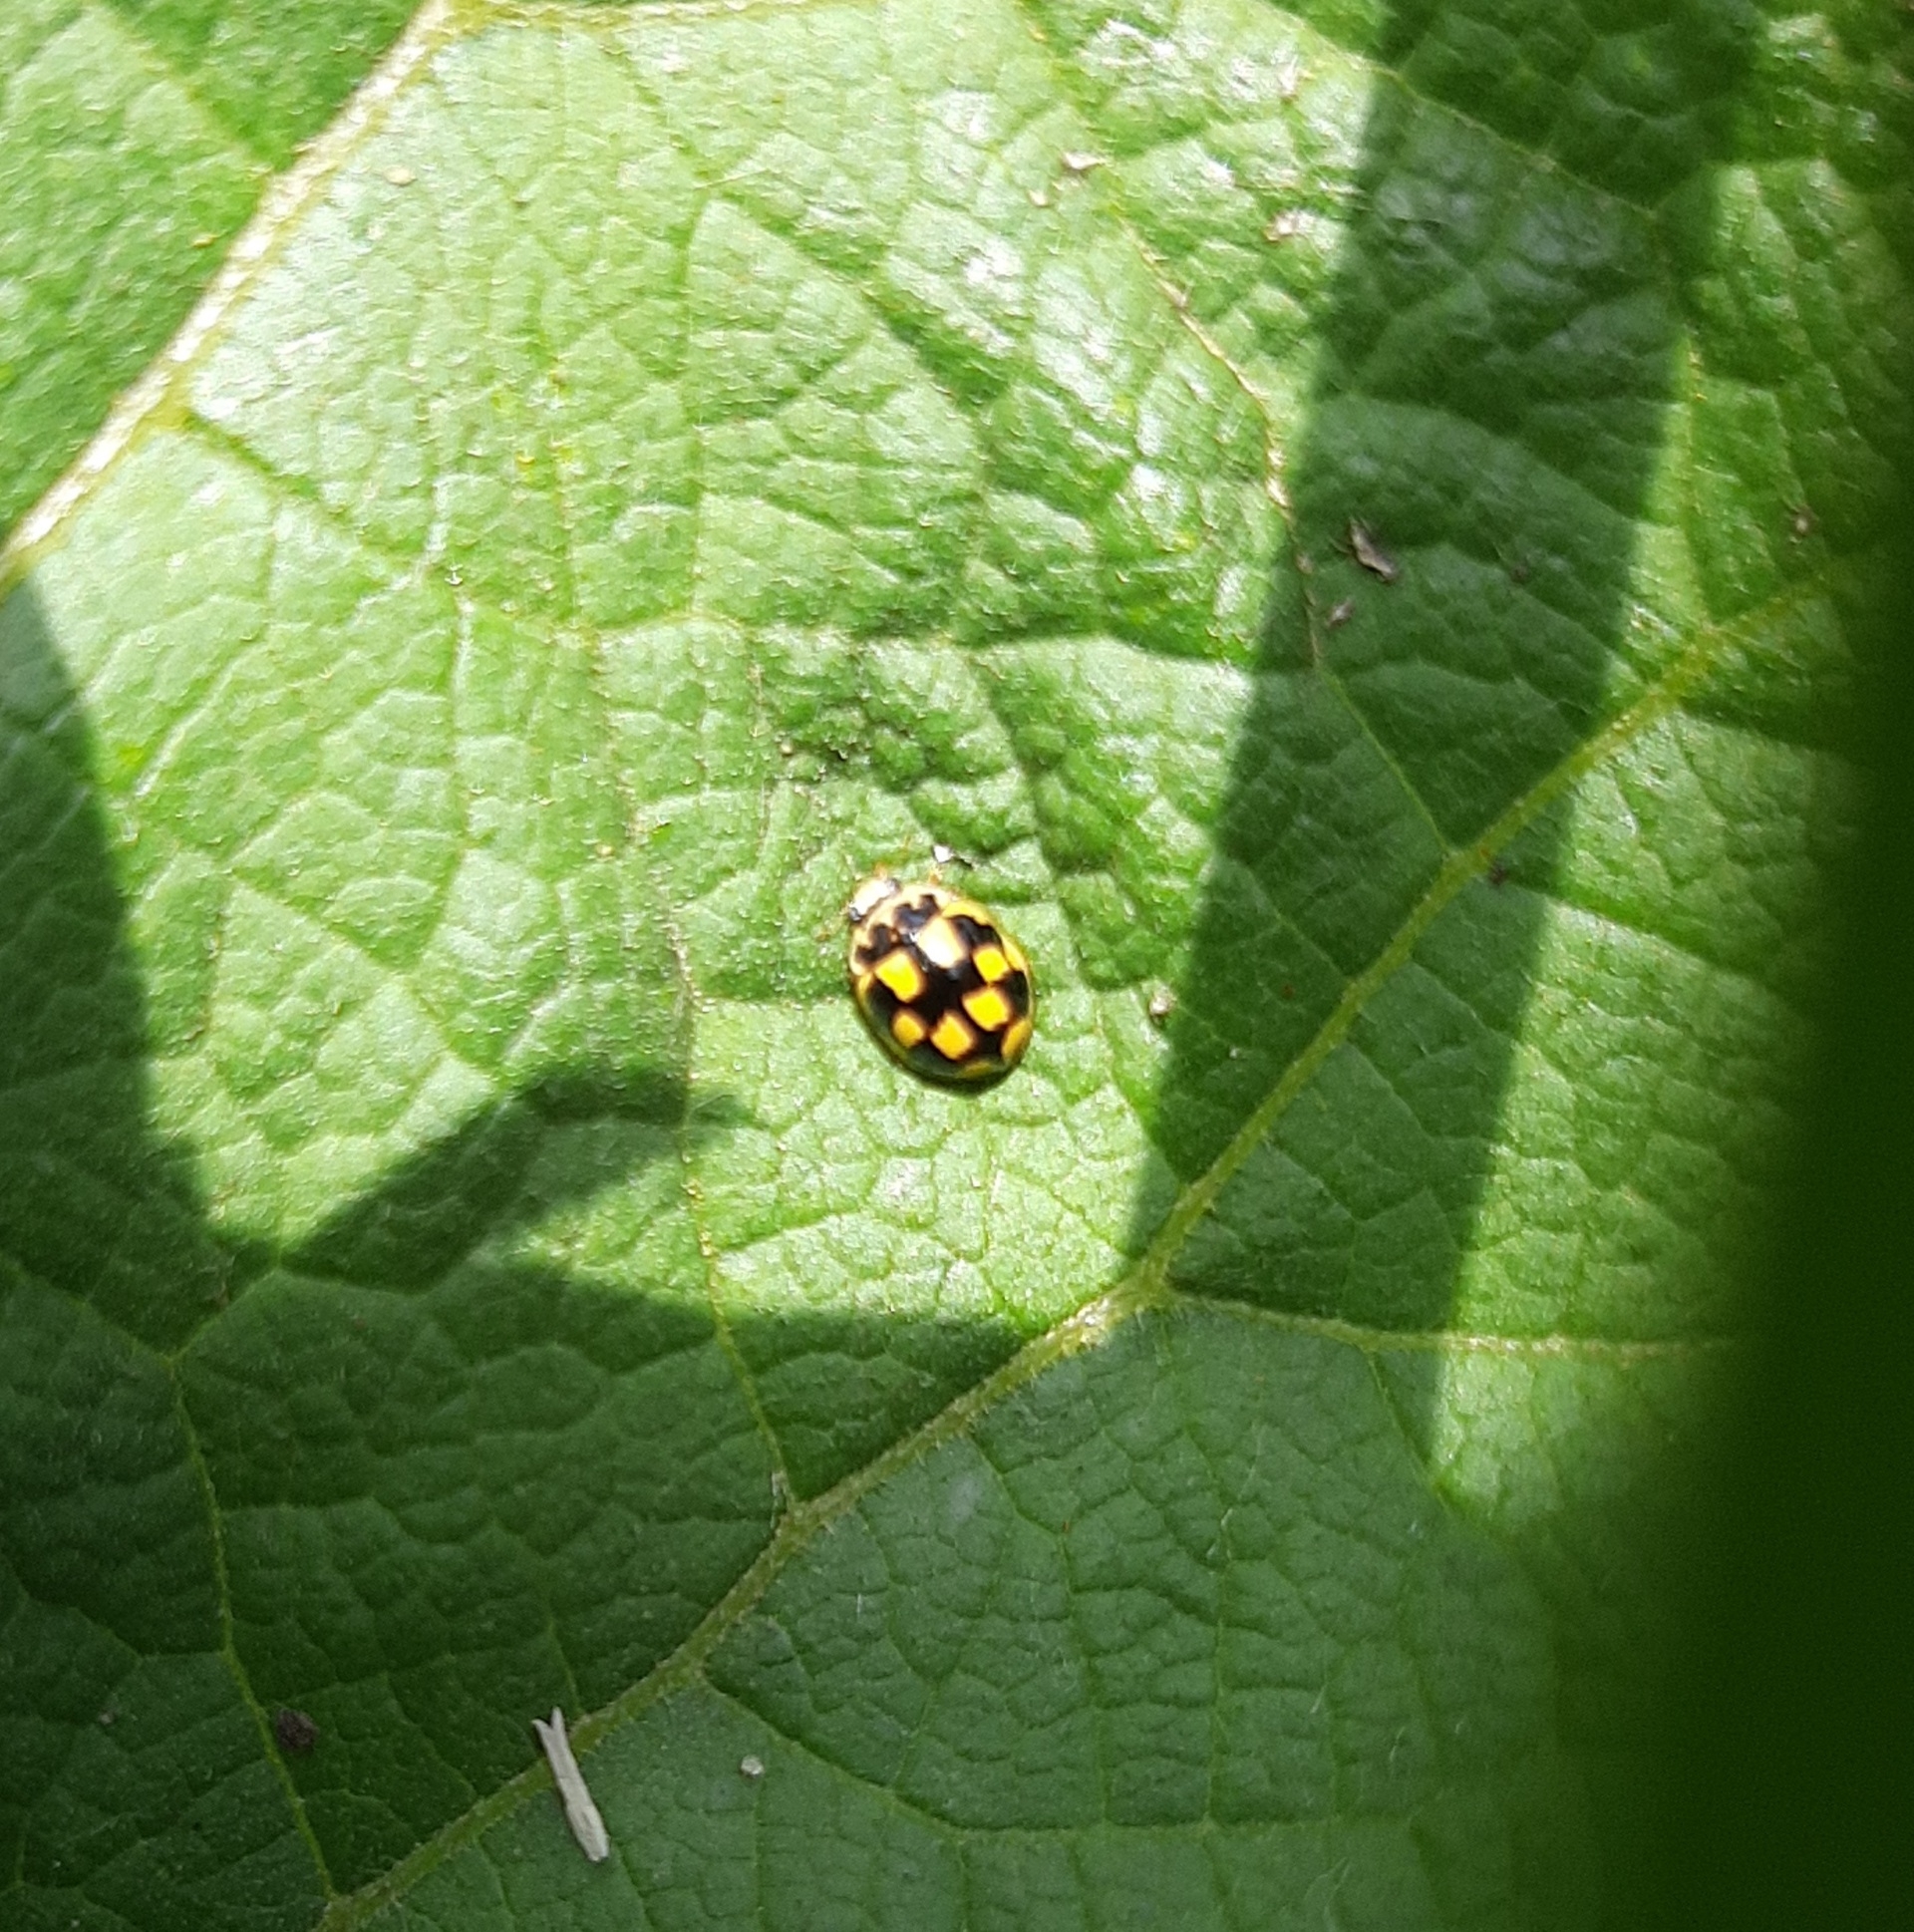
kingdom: Animalia
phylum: Arthropoda
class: Insecta
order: Coleoptera
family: Coccinellidae
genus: Propylaea
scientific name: Propylaea quatuordecimpunctata
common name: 14-spotted ladybird beetle
